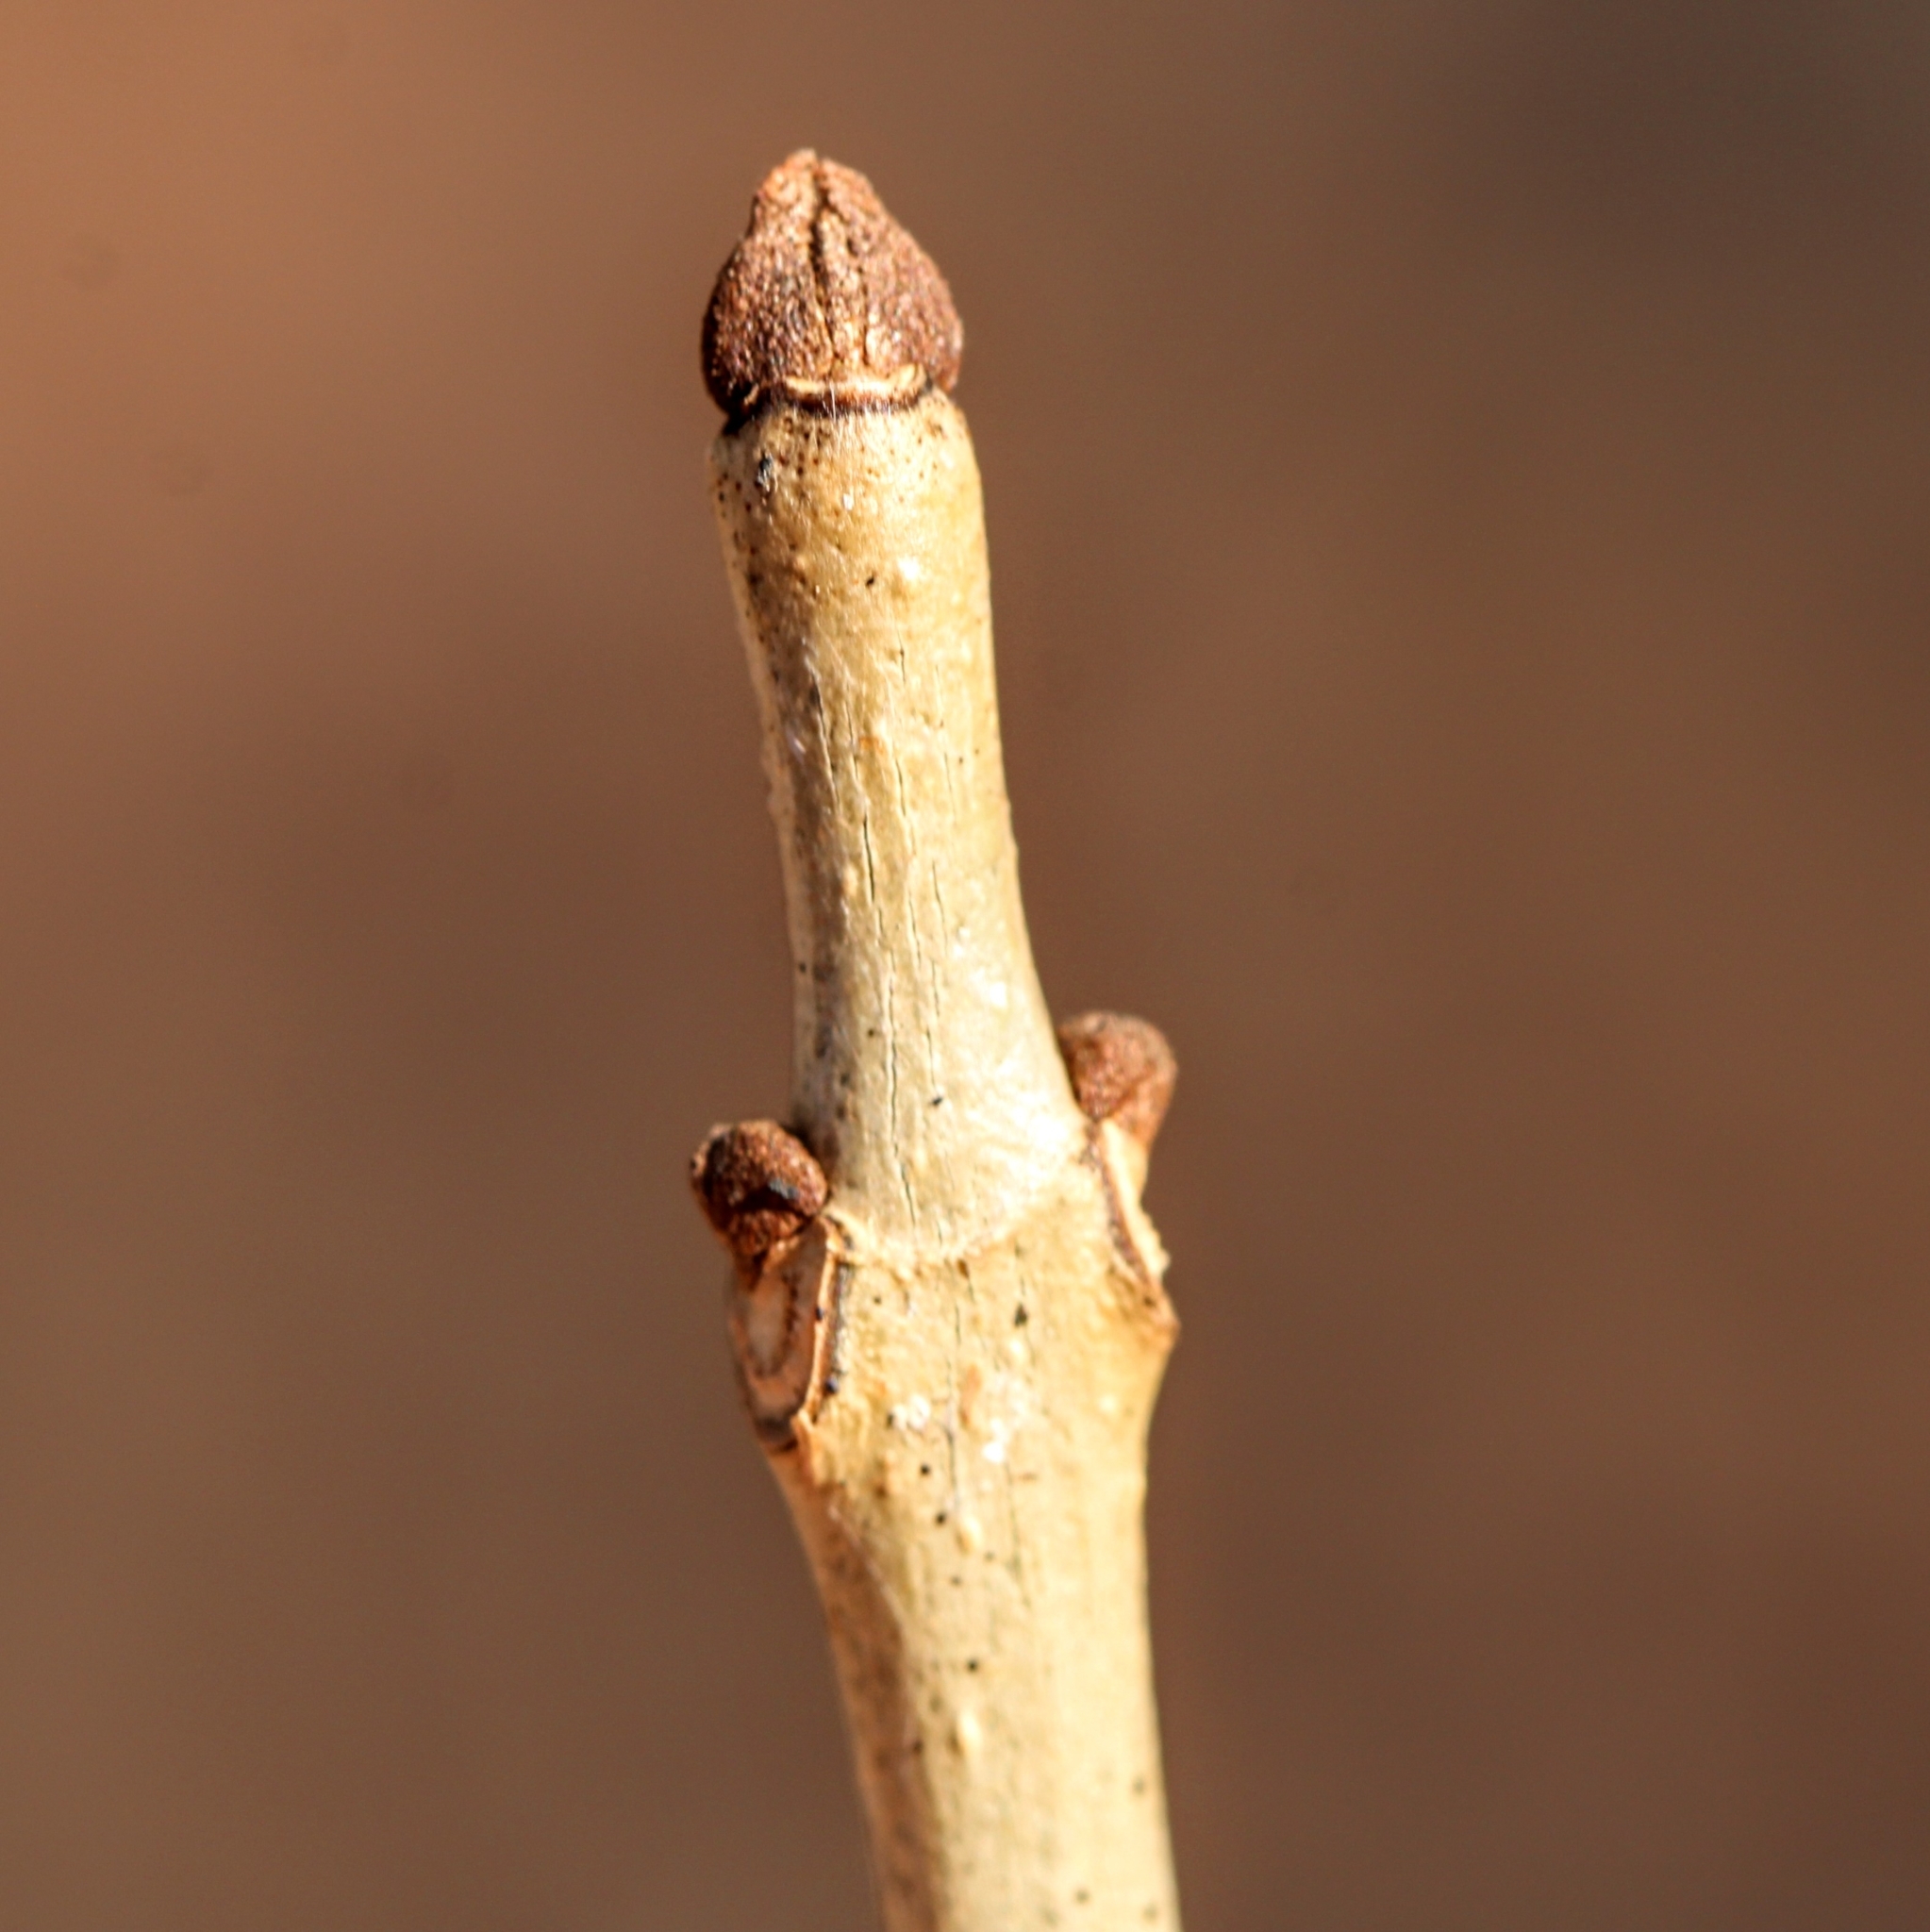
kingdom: Plantae
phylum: Tracheophyta
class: Magnoliopsida
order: Lamiales
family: Oleaceae
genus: Fraxinus
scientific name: Fraxinus nigra
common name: Black ash
